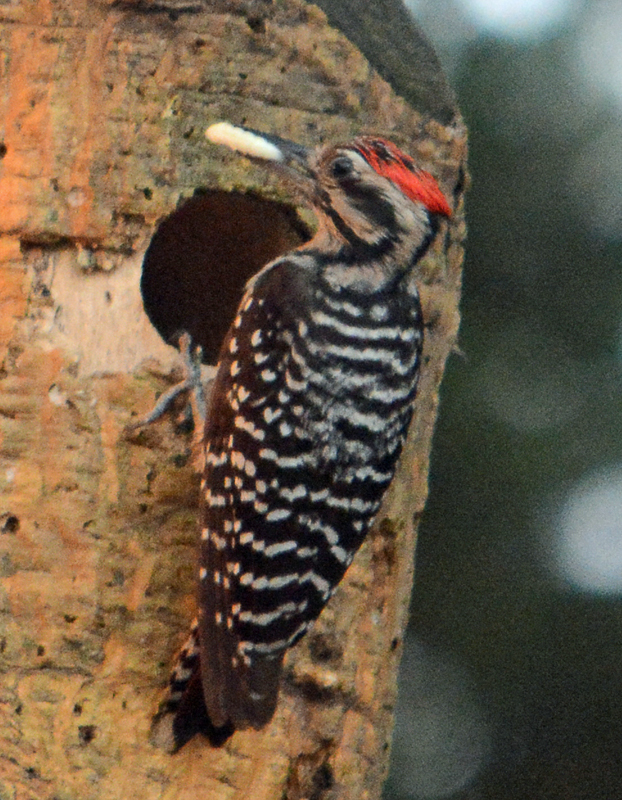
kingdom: Animalia
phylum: Chordata
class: Aves
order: Piciformes
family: Picidae
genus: Dryobates
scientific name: Dryobates scalaris
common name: Ladder-backed woodpecker
